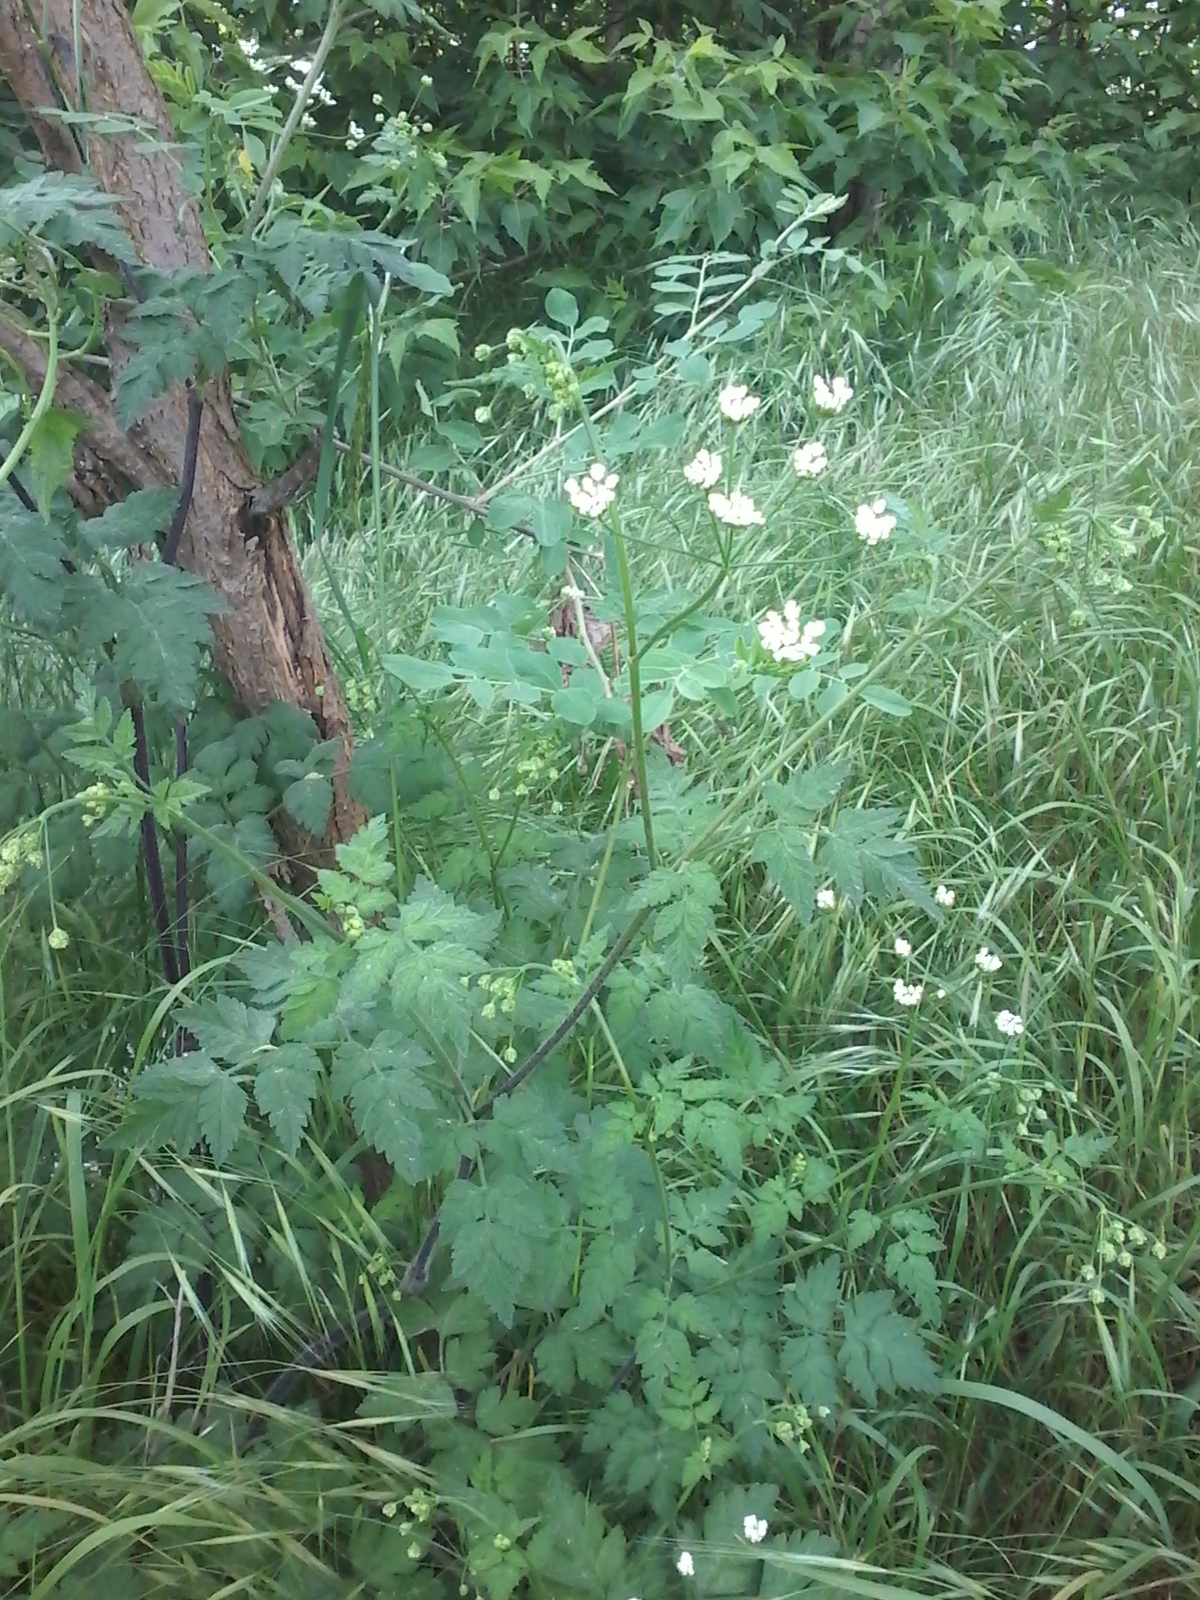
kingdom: Plantae
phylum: Tracheophyta
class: Magnoliopsida
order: Apiales
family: Apiaceae
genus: Chaerophyllum
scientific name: Chaerophyllum temulum
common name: Rough chervil
